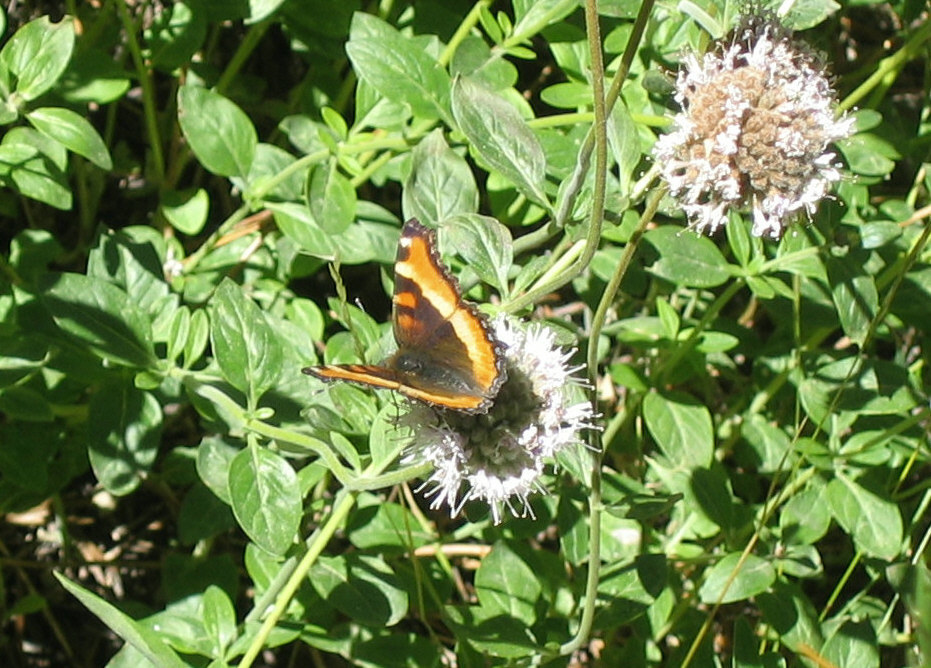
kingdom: Animalia
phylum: Arthropoda
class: Insecta
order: Lepidoptera
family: Nymphalidae
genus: Aglais
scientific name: Aglais milberti
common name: Milbert's tortoiseshell
